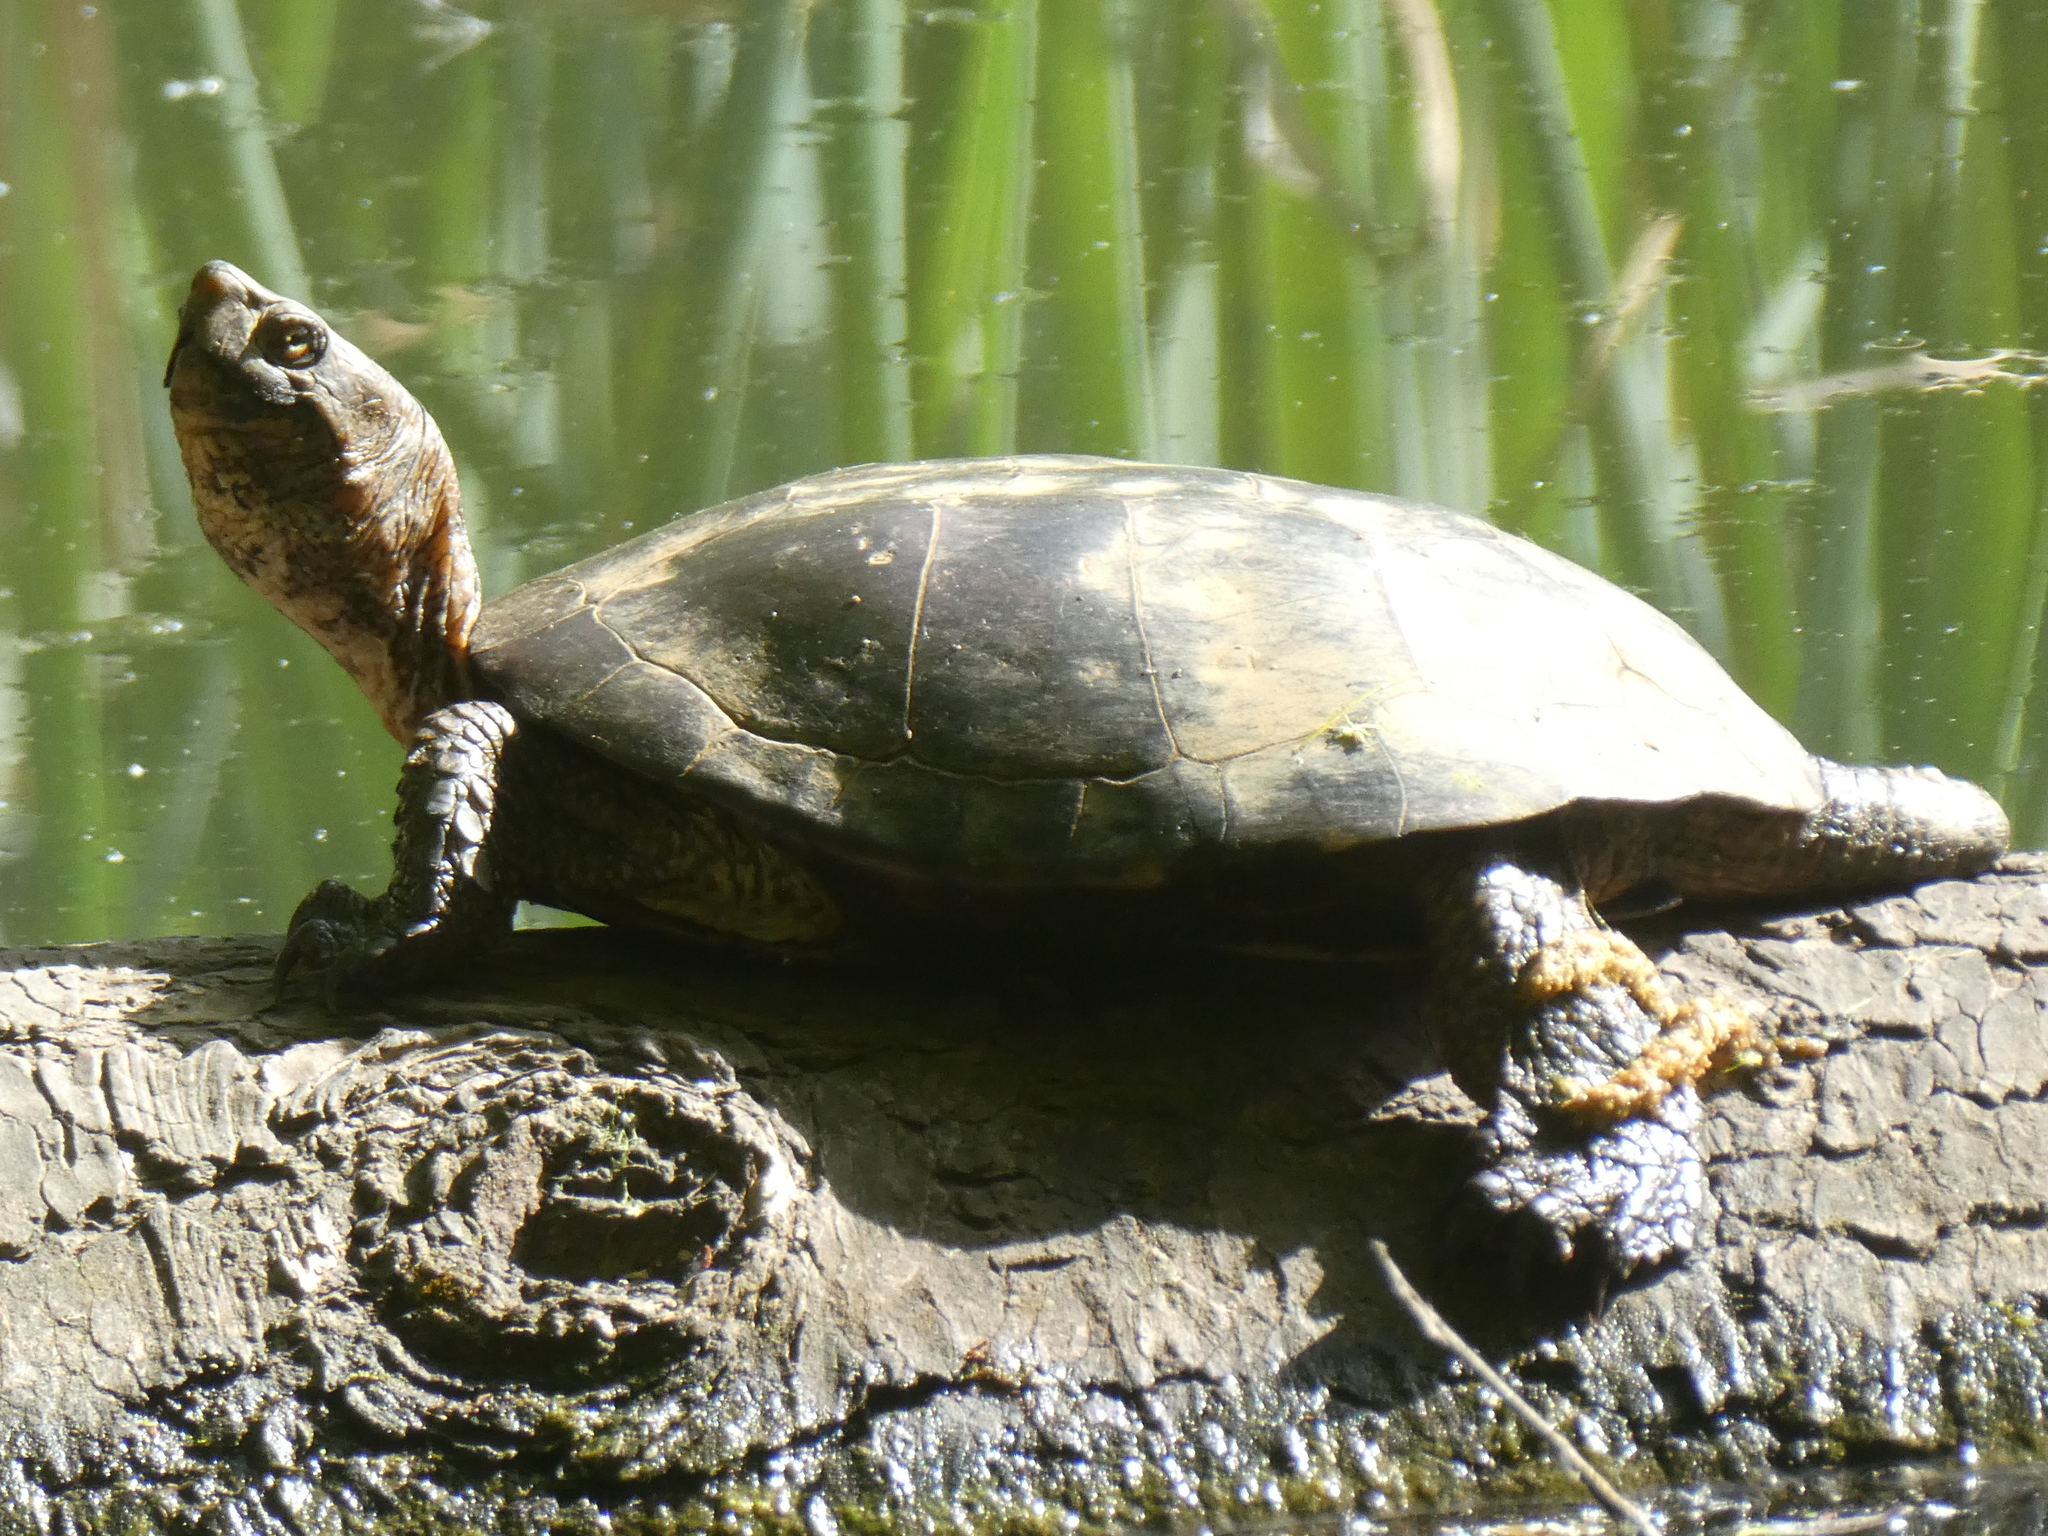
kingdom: Animalia
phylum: Chordata
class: Testudines
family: Emydidae
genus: Actinemys
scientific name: Actinemys marmorata
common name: Western pond turtle
